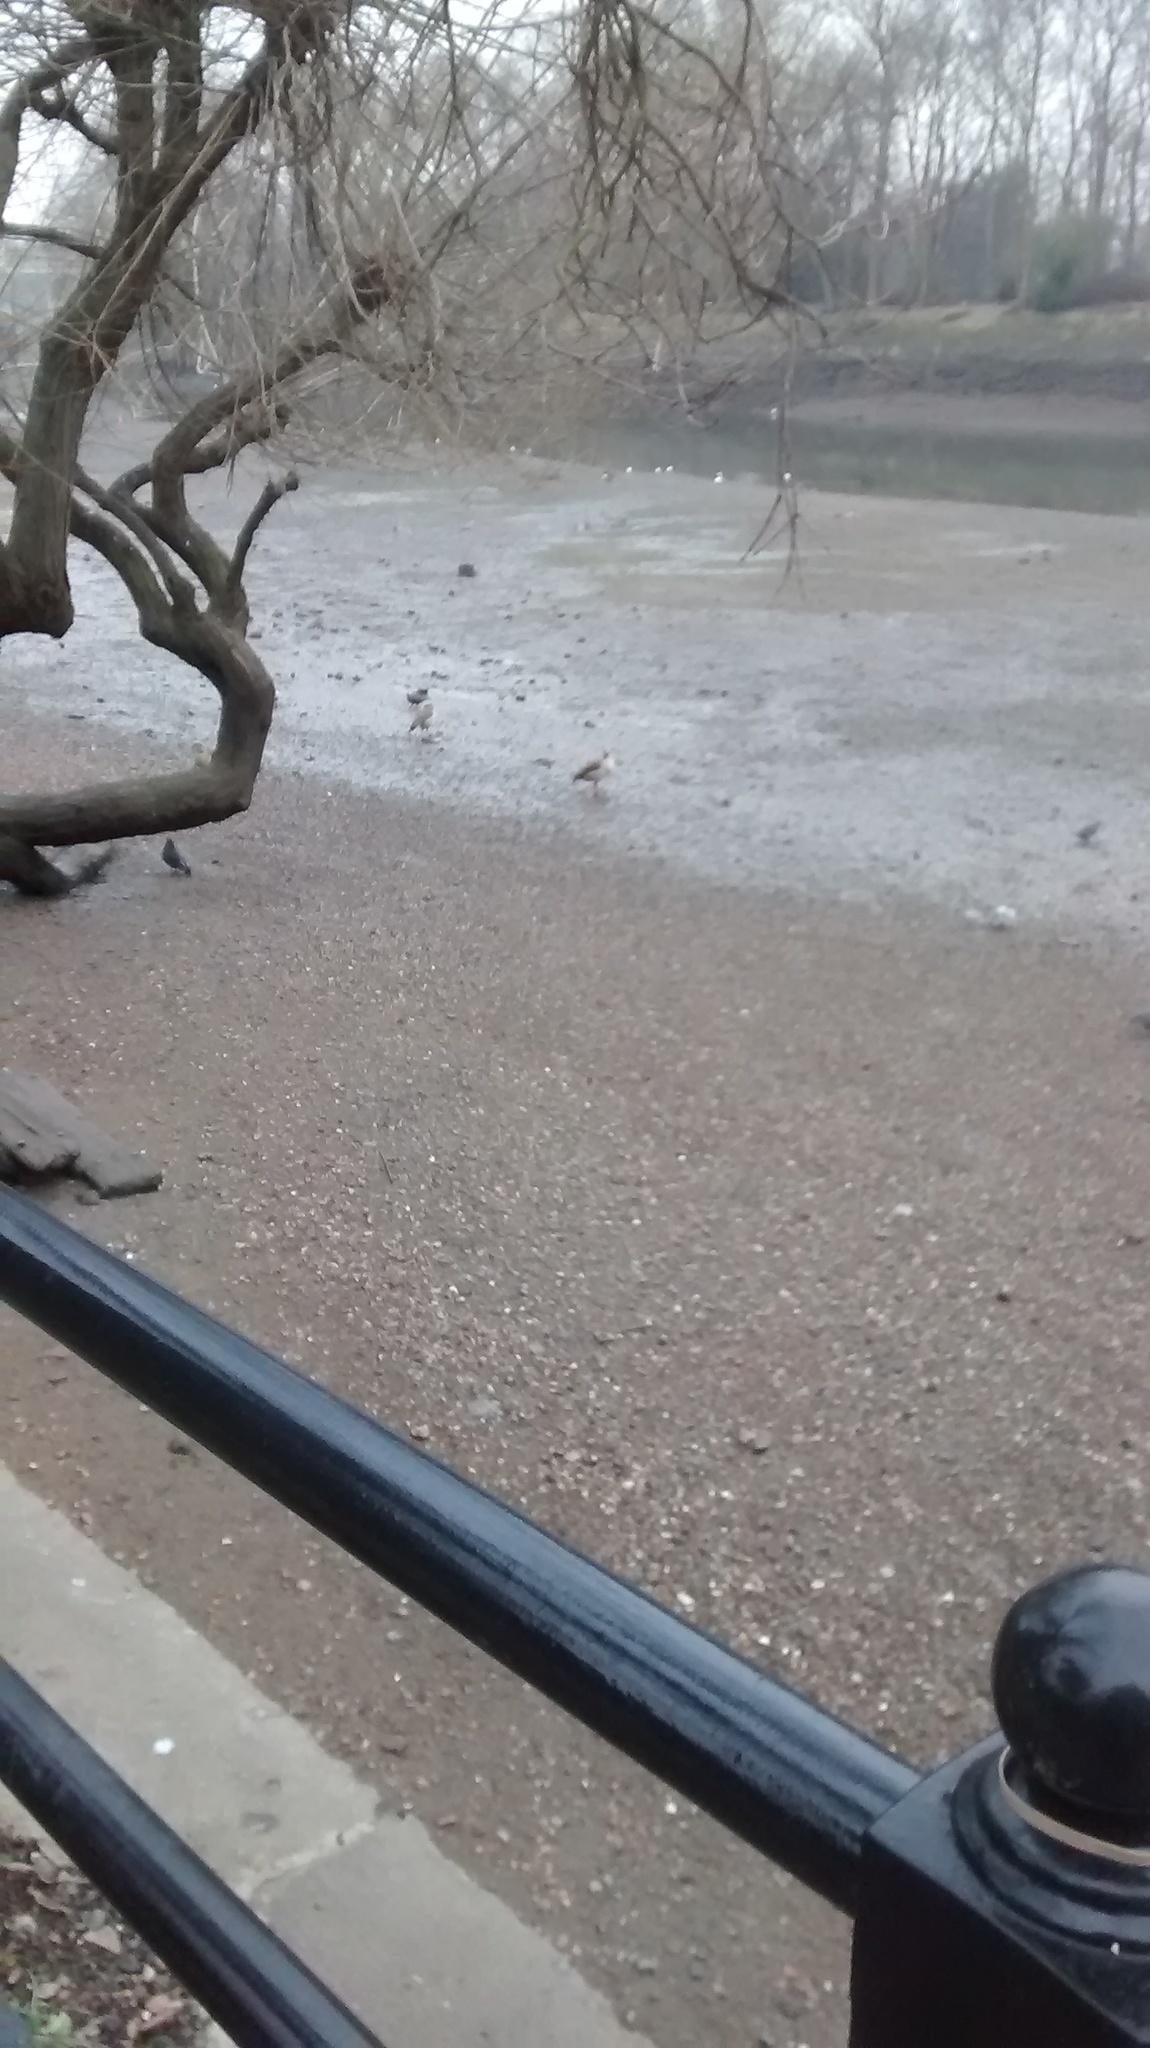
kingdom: Animalia
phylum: Chordata
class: Aves
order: Anseriformes
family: Anatidae
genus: Alopochen
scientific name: Alopochen aegyptiaca
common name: Egyptian goose
